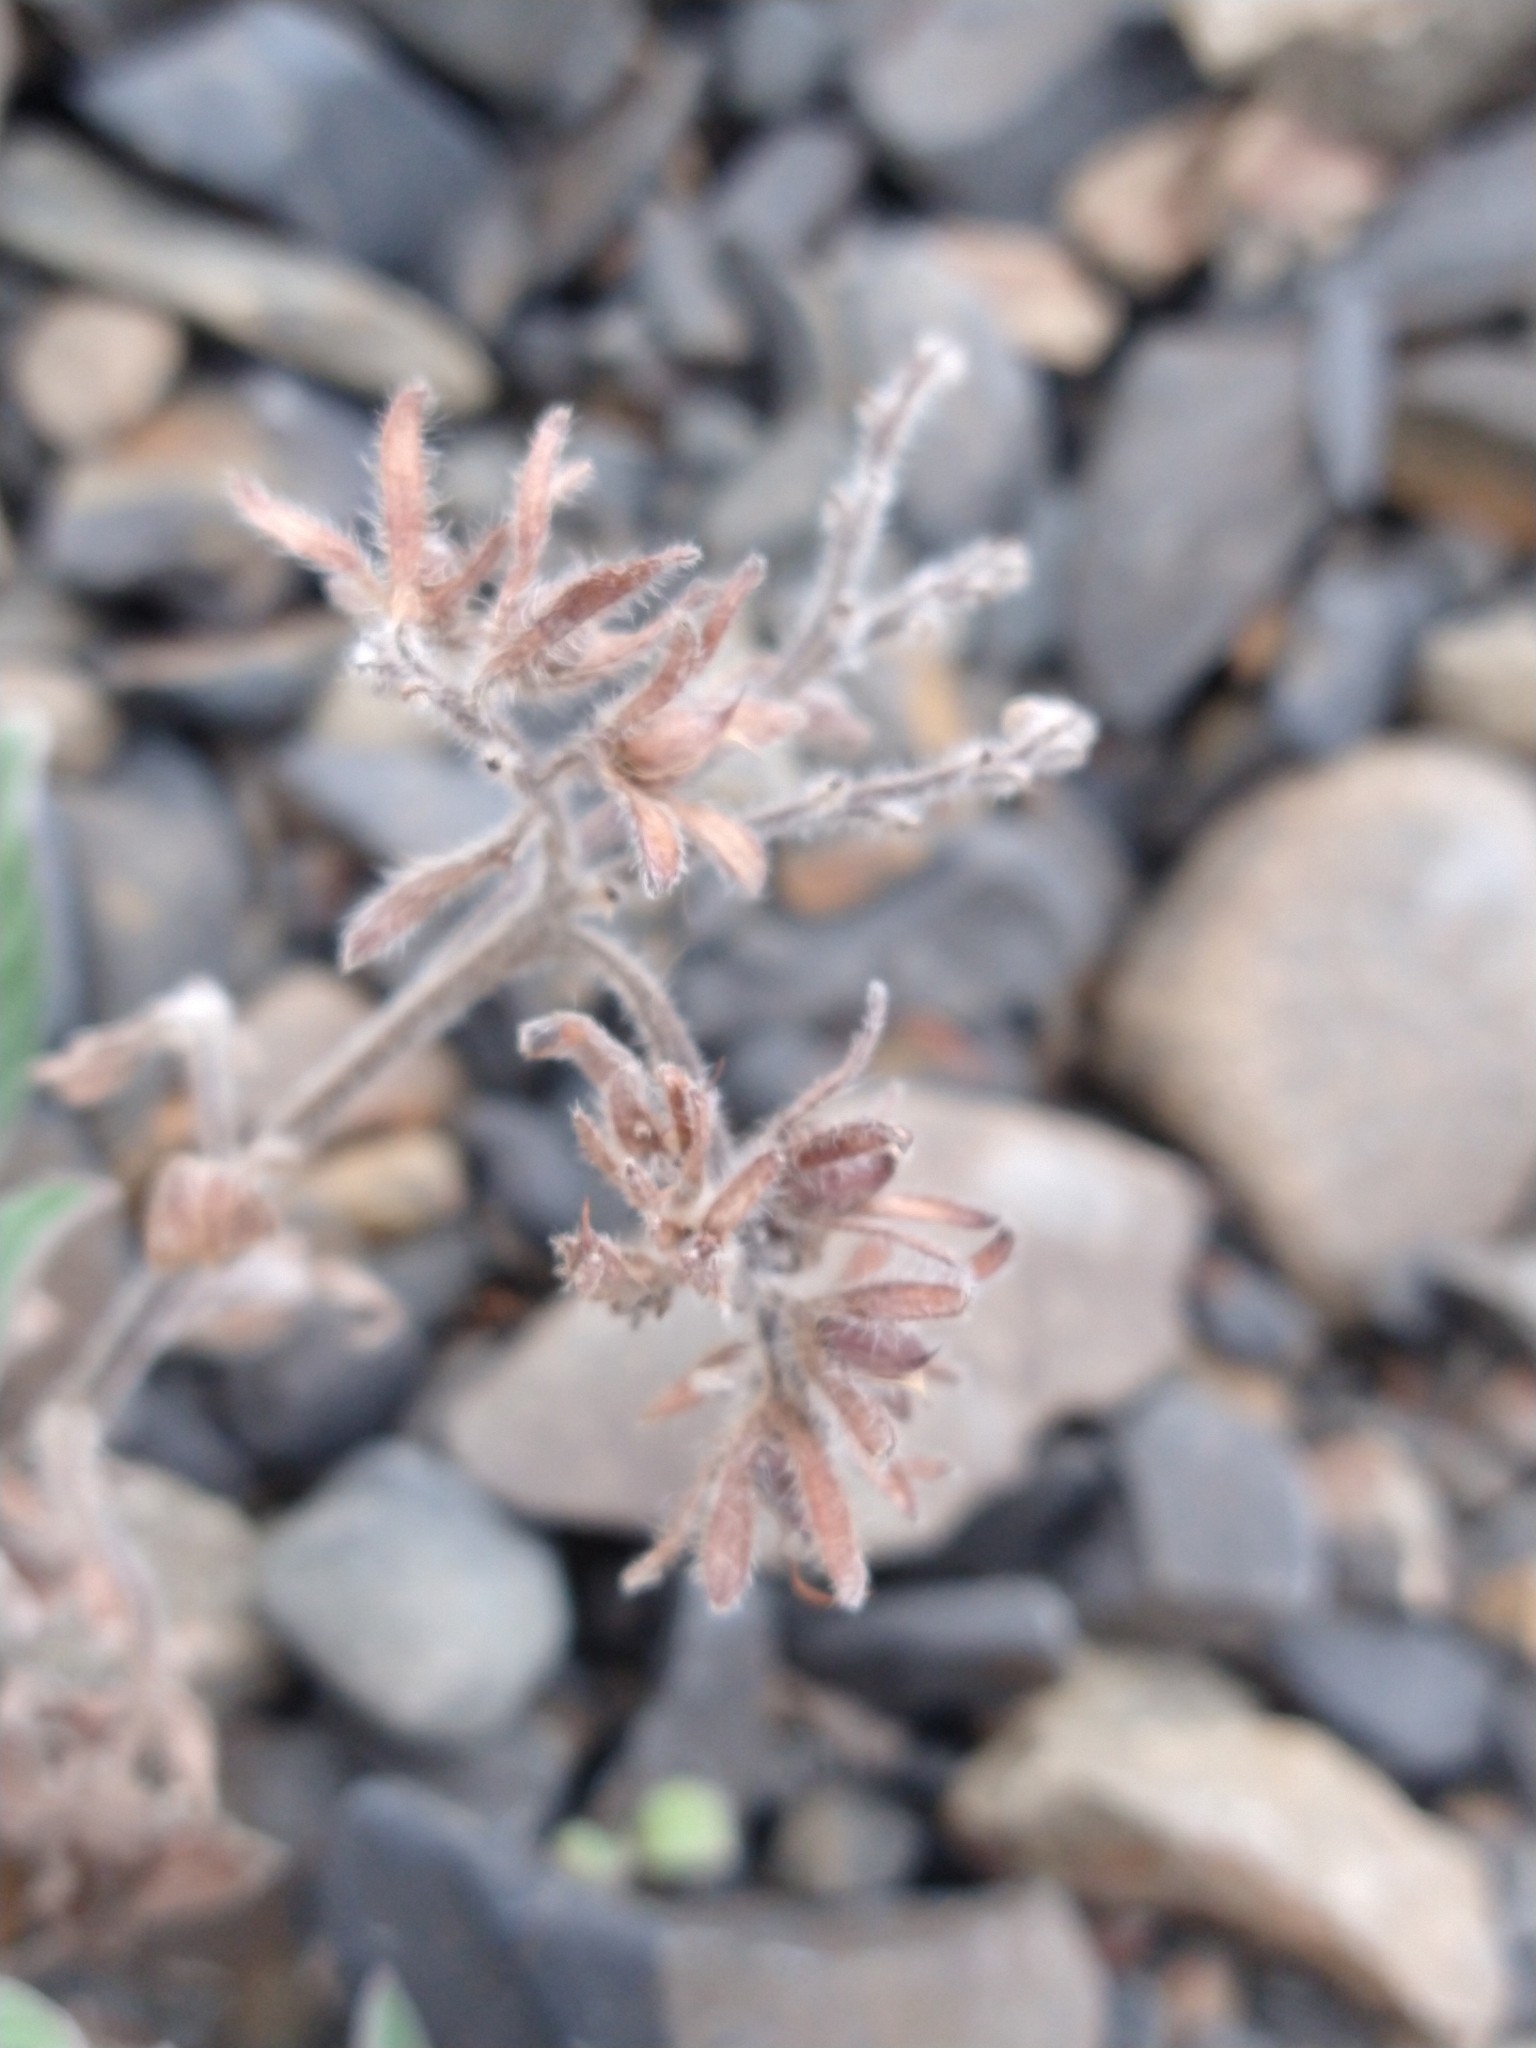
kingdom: Plantae
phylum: Tracheophyta
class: Magnoliopsida
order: Boraginales
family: Hydrophyllaceae
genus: Phacelia
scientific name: Phacelia secunda
